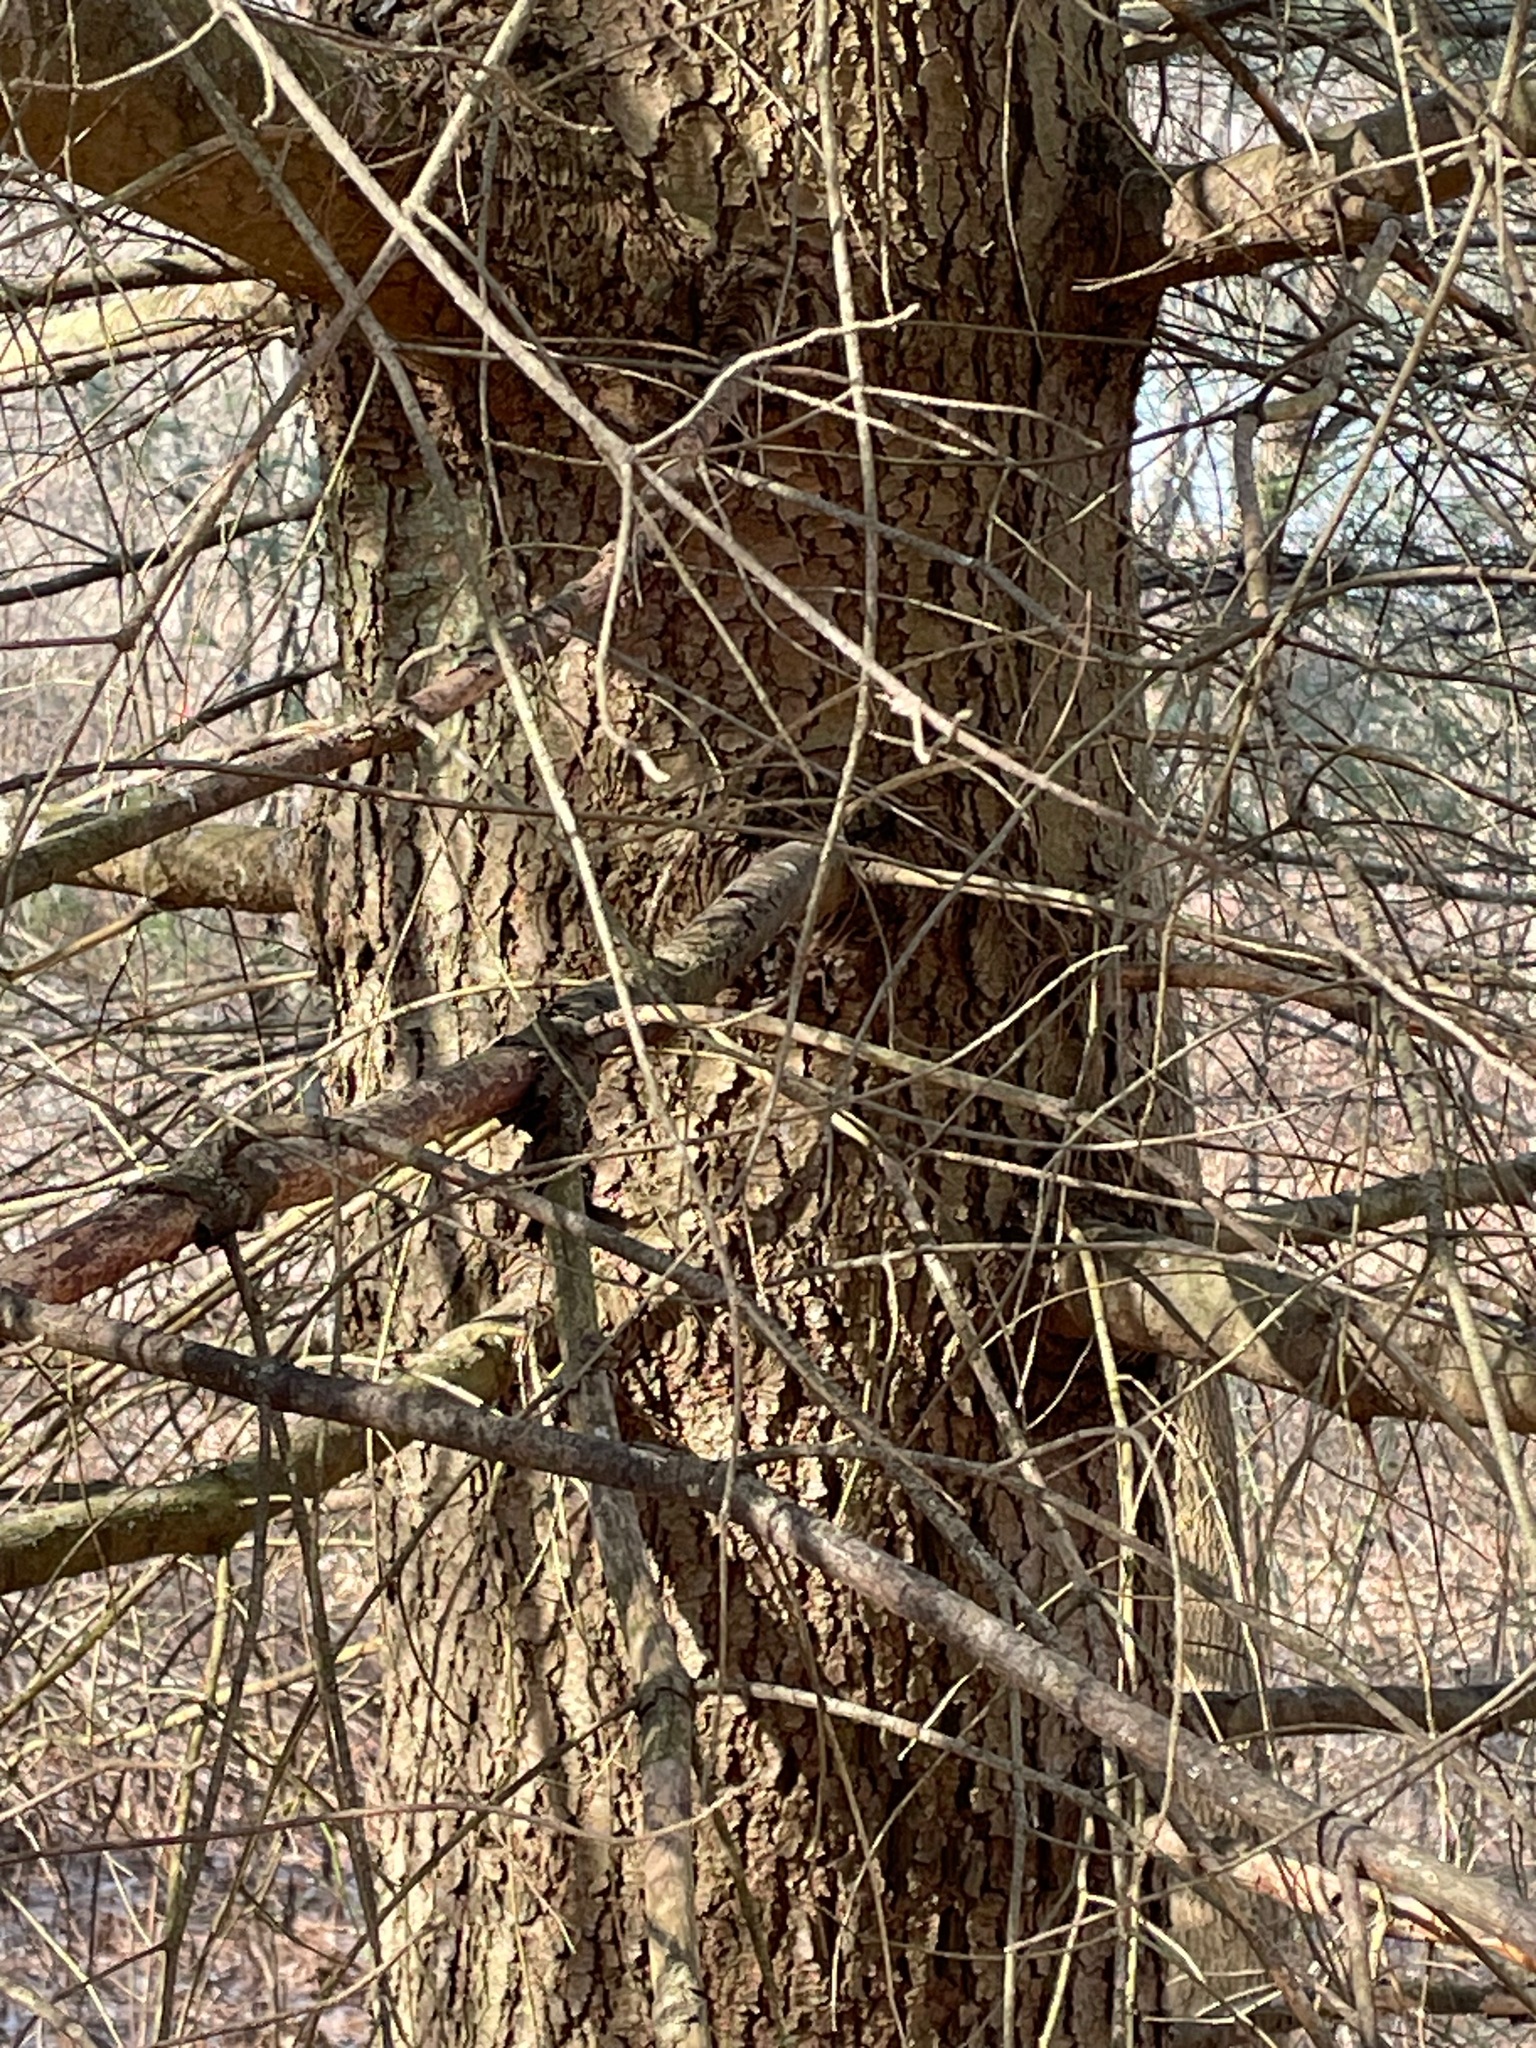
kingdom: Plantae
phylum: Tracheophyta
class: Pinopsida
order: Pinales
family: Pinaceae
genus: Pinus
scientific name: Pinus strobus
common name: Weymouth pine
